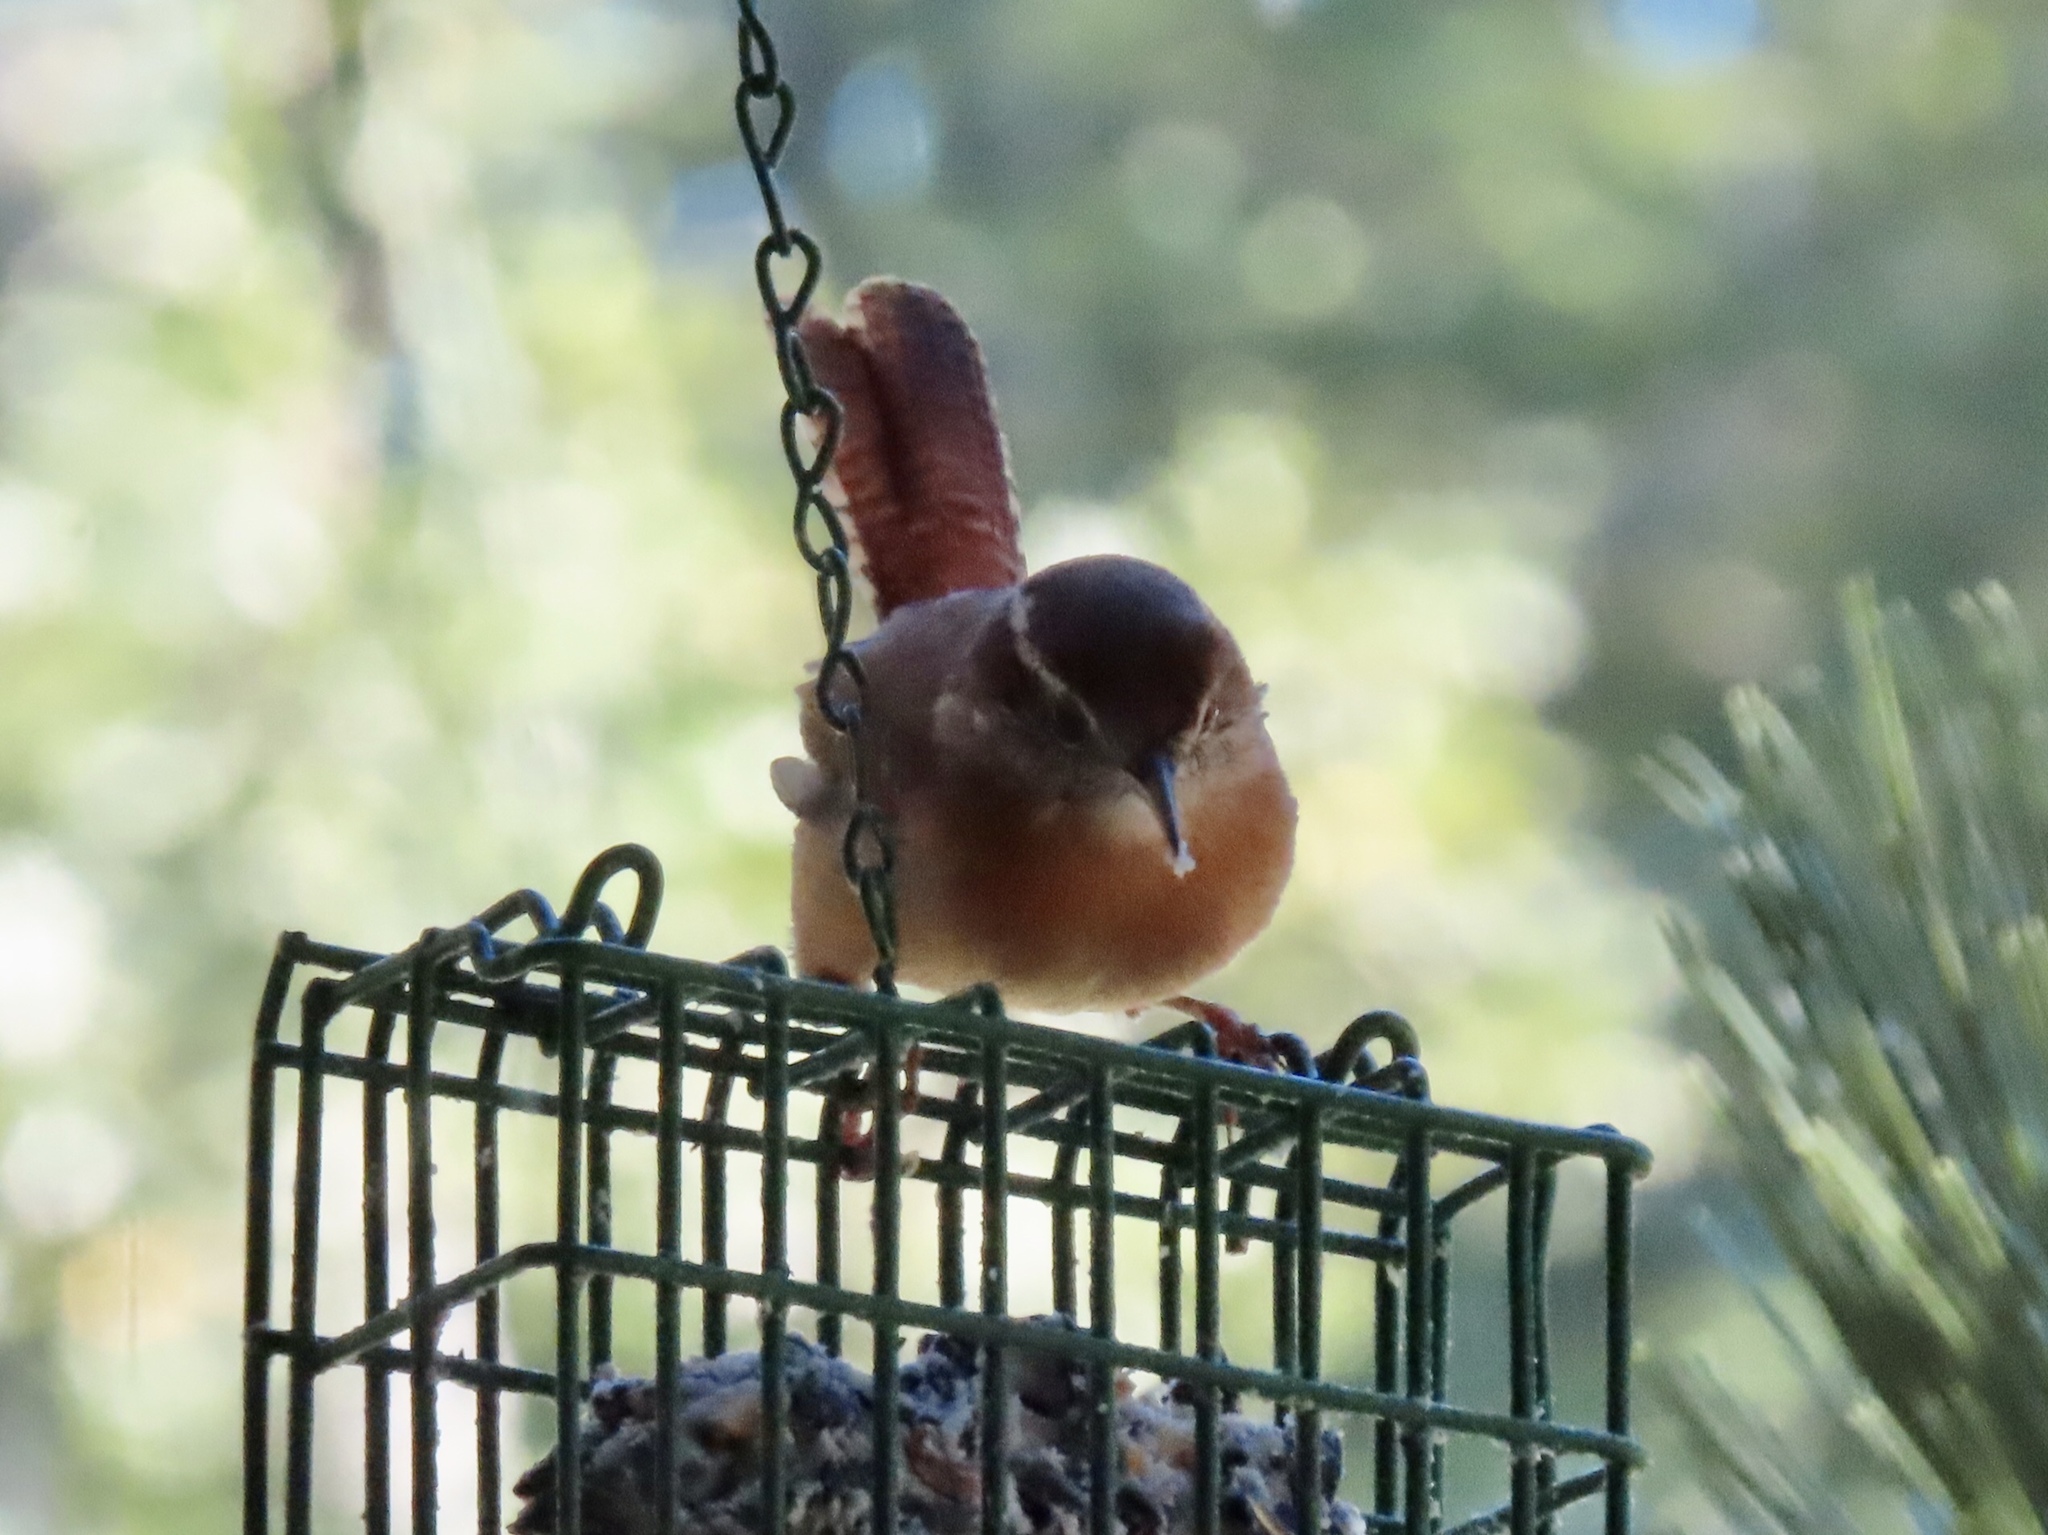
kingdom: Animalia
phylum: Chordata
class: Aves
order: Passeriformes
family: Troglodytidae
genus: Thryothorus
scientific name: Thryothorus ludovicianus
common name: Carolina wren
